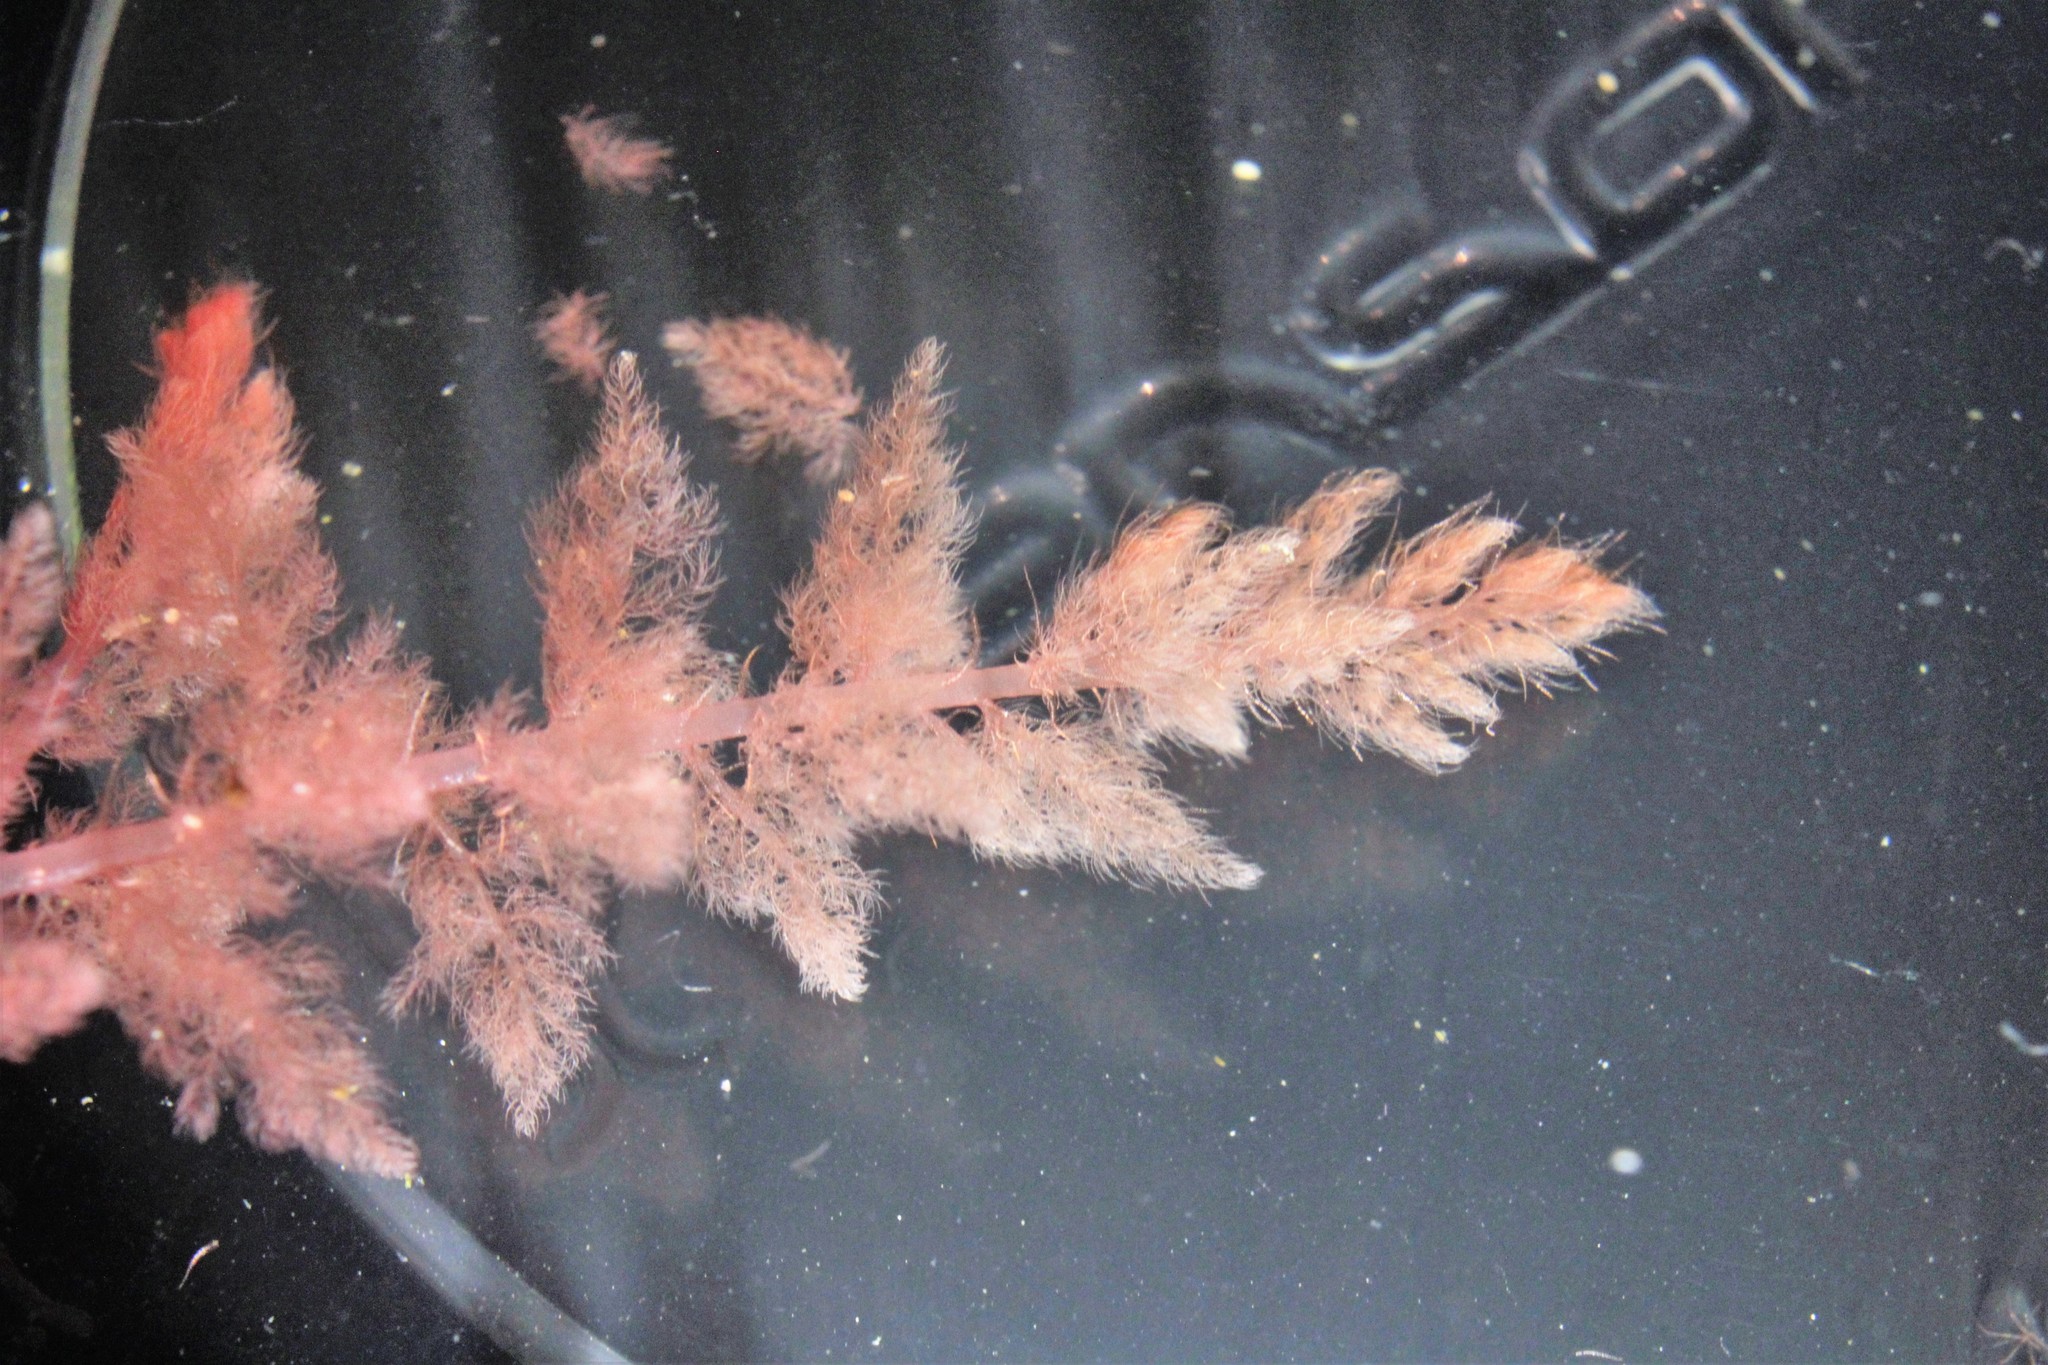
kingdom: Plantae
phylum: Rhodophyta
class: Florideophyceae
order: Bonnemaisoniales
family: Bonnemaisoniaceae
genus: Asparagopsis
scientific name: Asparagopsis armata
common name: Harpoon weed
